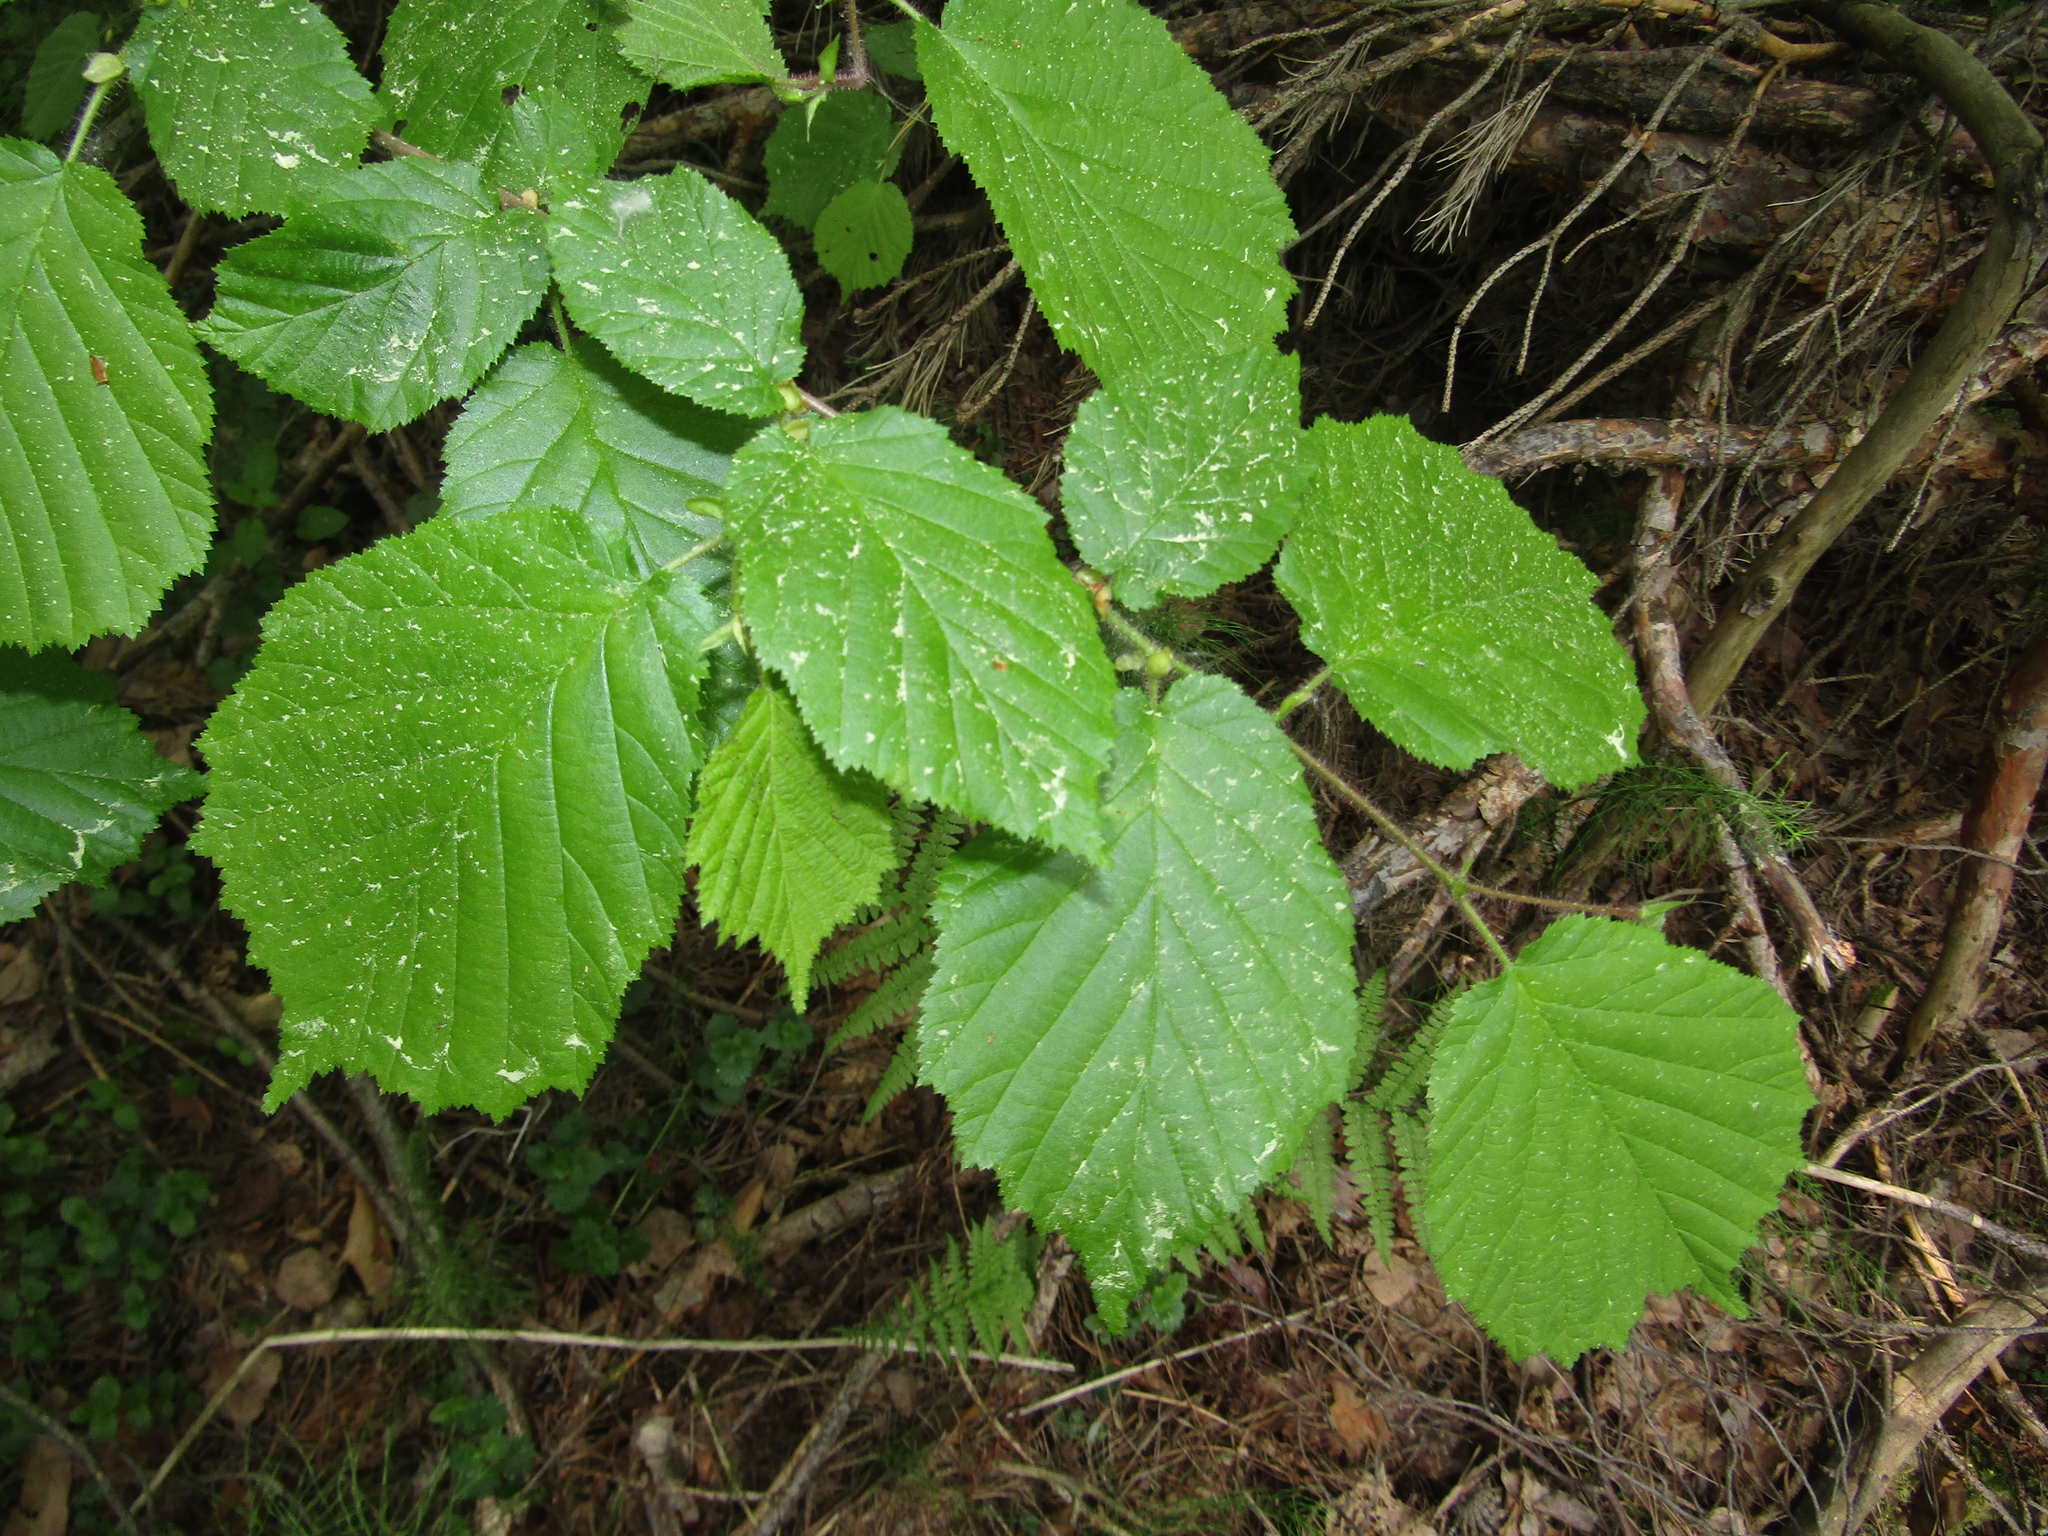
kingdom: Plantae
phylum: Tracheophyta
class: Magnoliopsida
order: Fagales
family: Betulaceae
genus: Corylus
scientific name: Corylus avellana
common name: European hazel
